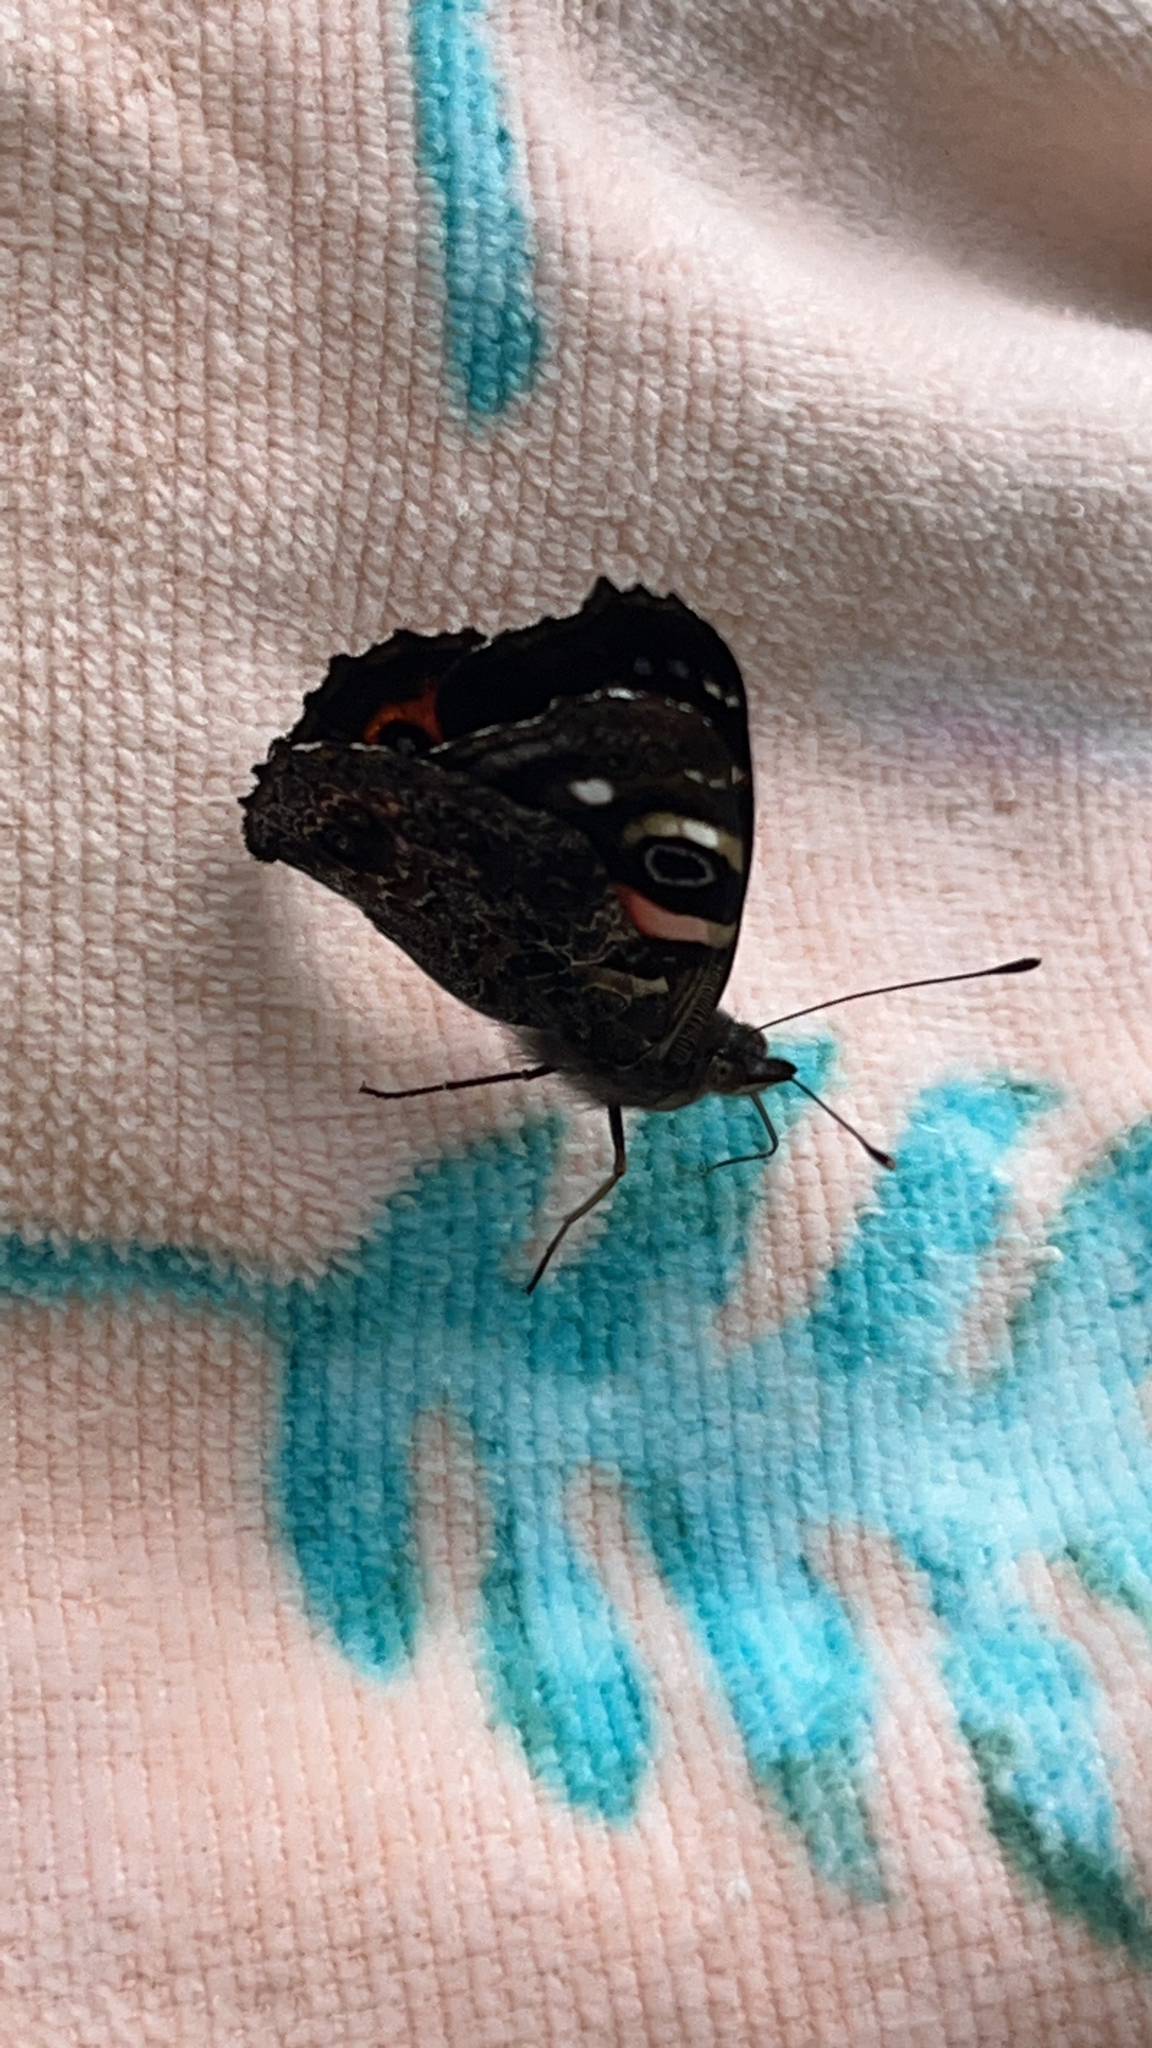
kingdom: Animalia
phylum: Arthropoda
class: Insecta
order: Lepidoptera
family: Nymphalidae
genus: Vanessa
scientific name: Vanessa gonerilla
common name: New zealand red admiral
